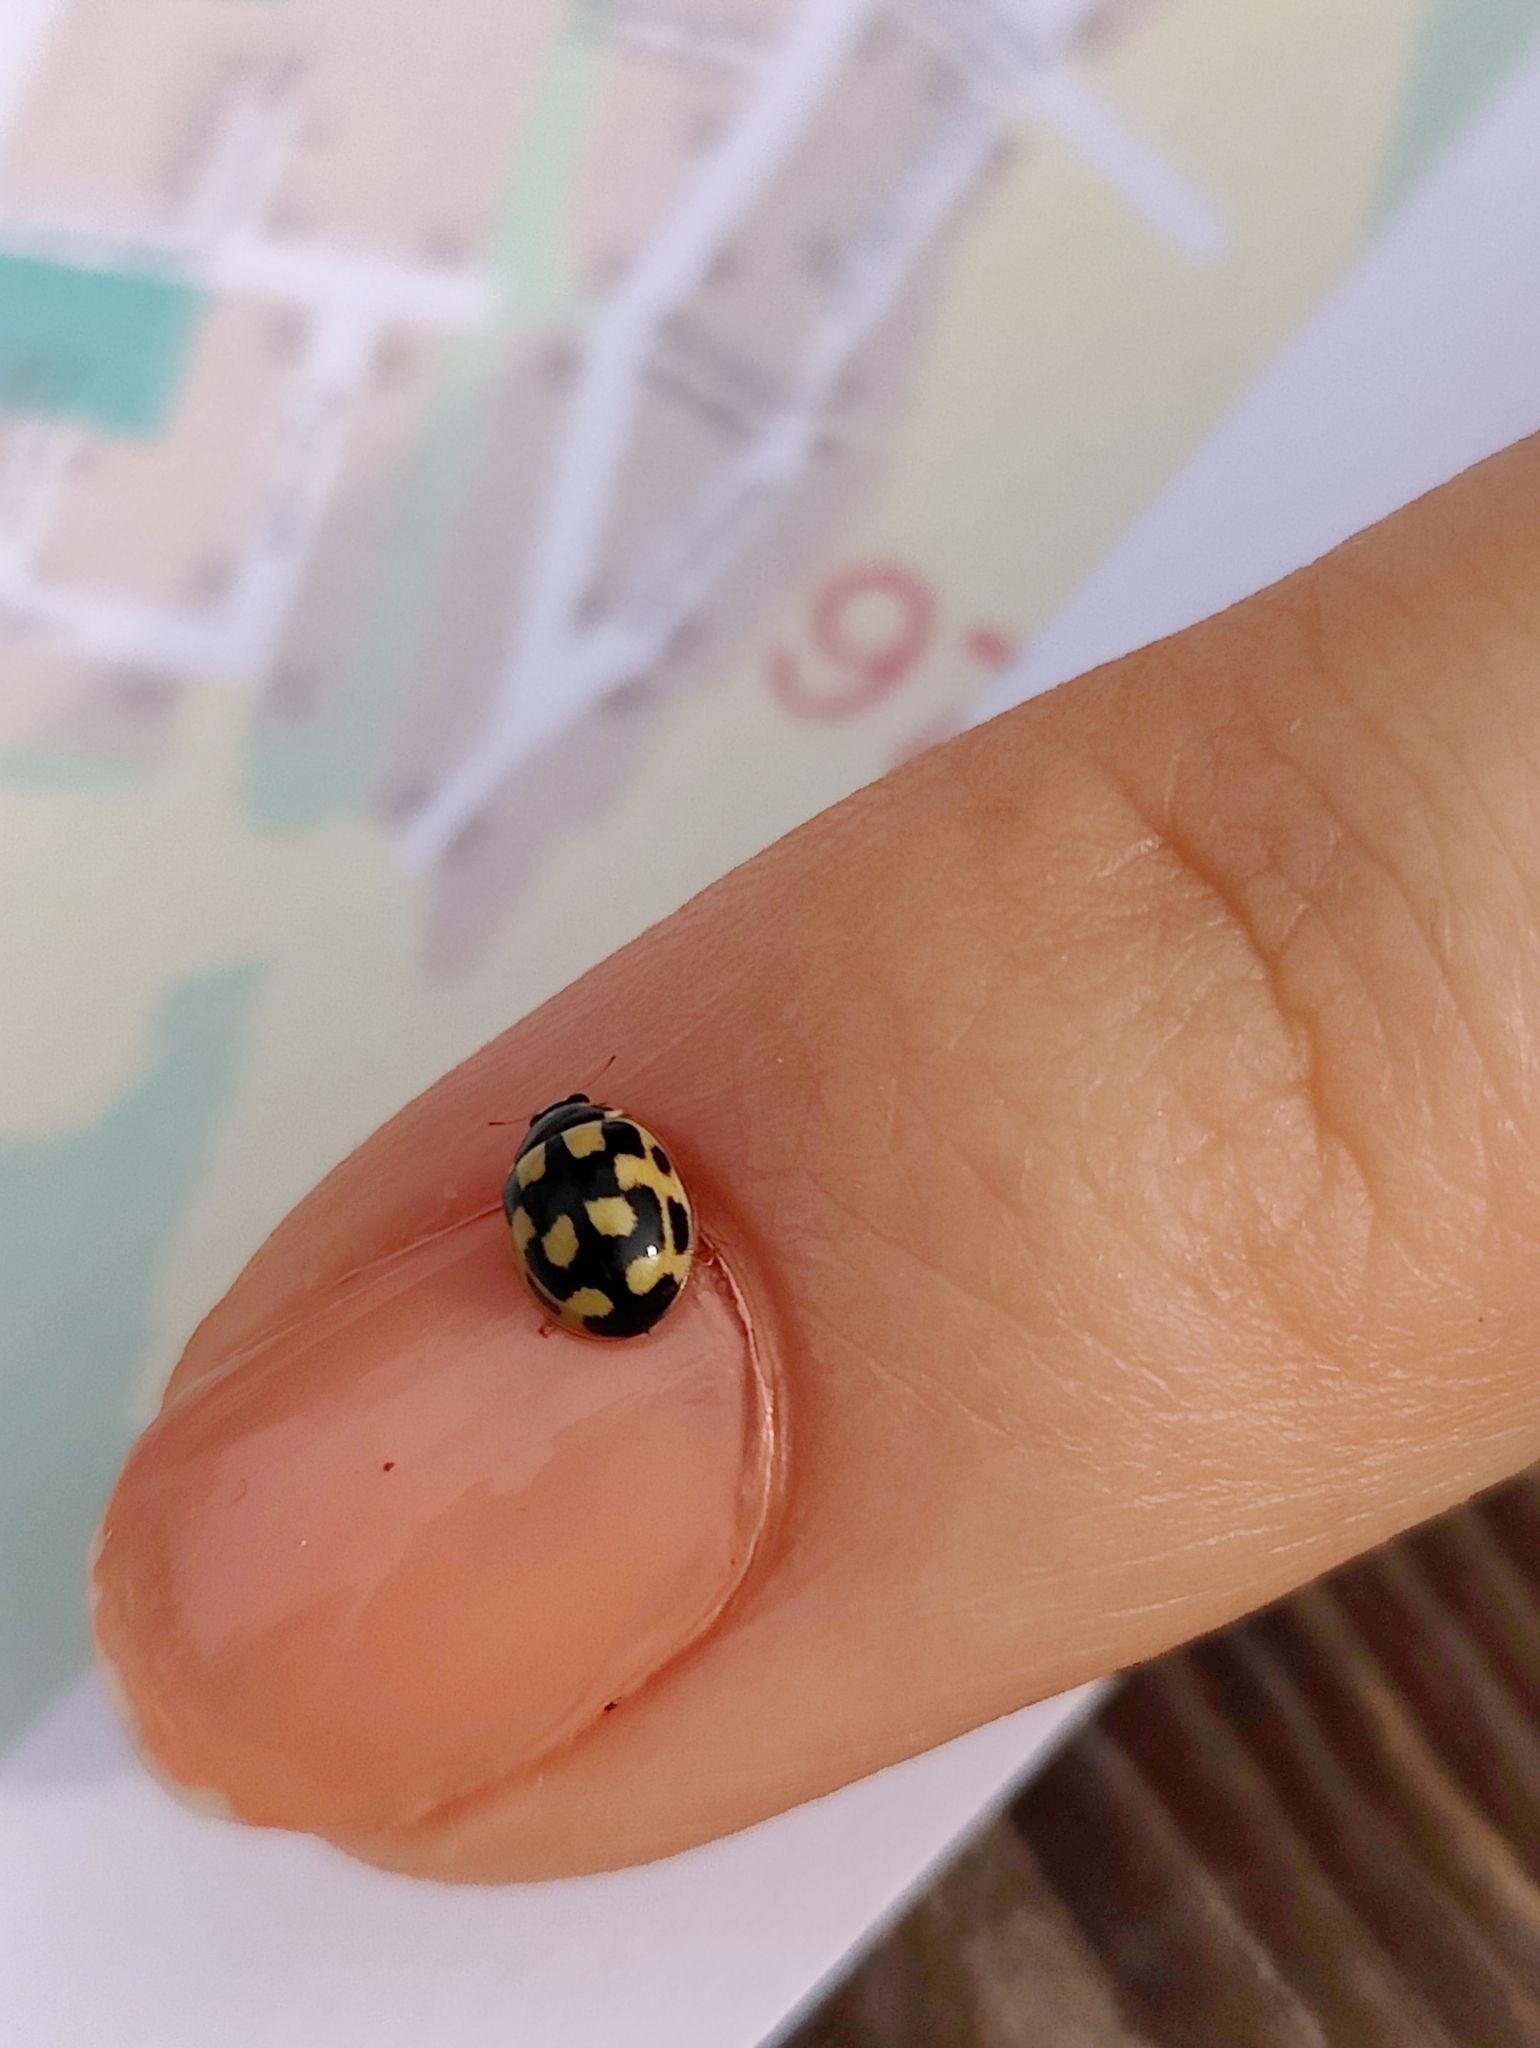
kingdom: Animalia
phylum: Arthropoda
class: Insecta
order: Coleoptera
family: Coccinellidae
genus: Propylaea
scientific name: Propylaea quatuordecimpunctata
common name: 14-spotted ladybird beetle
